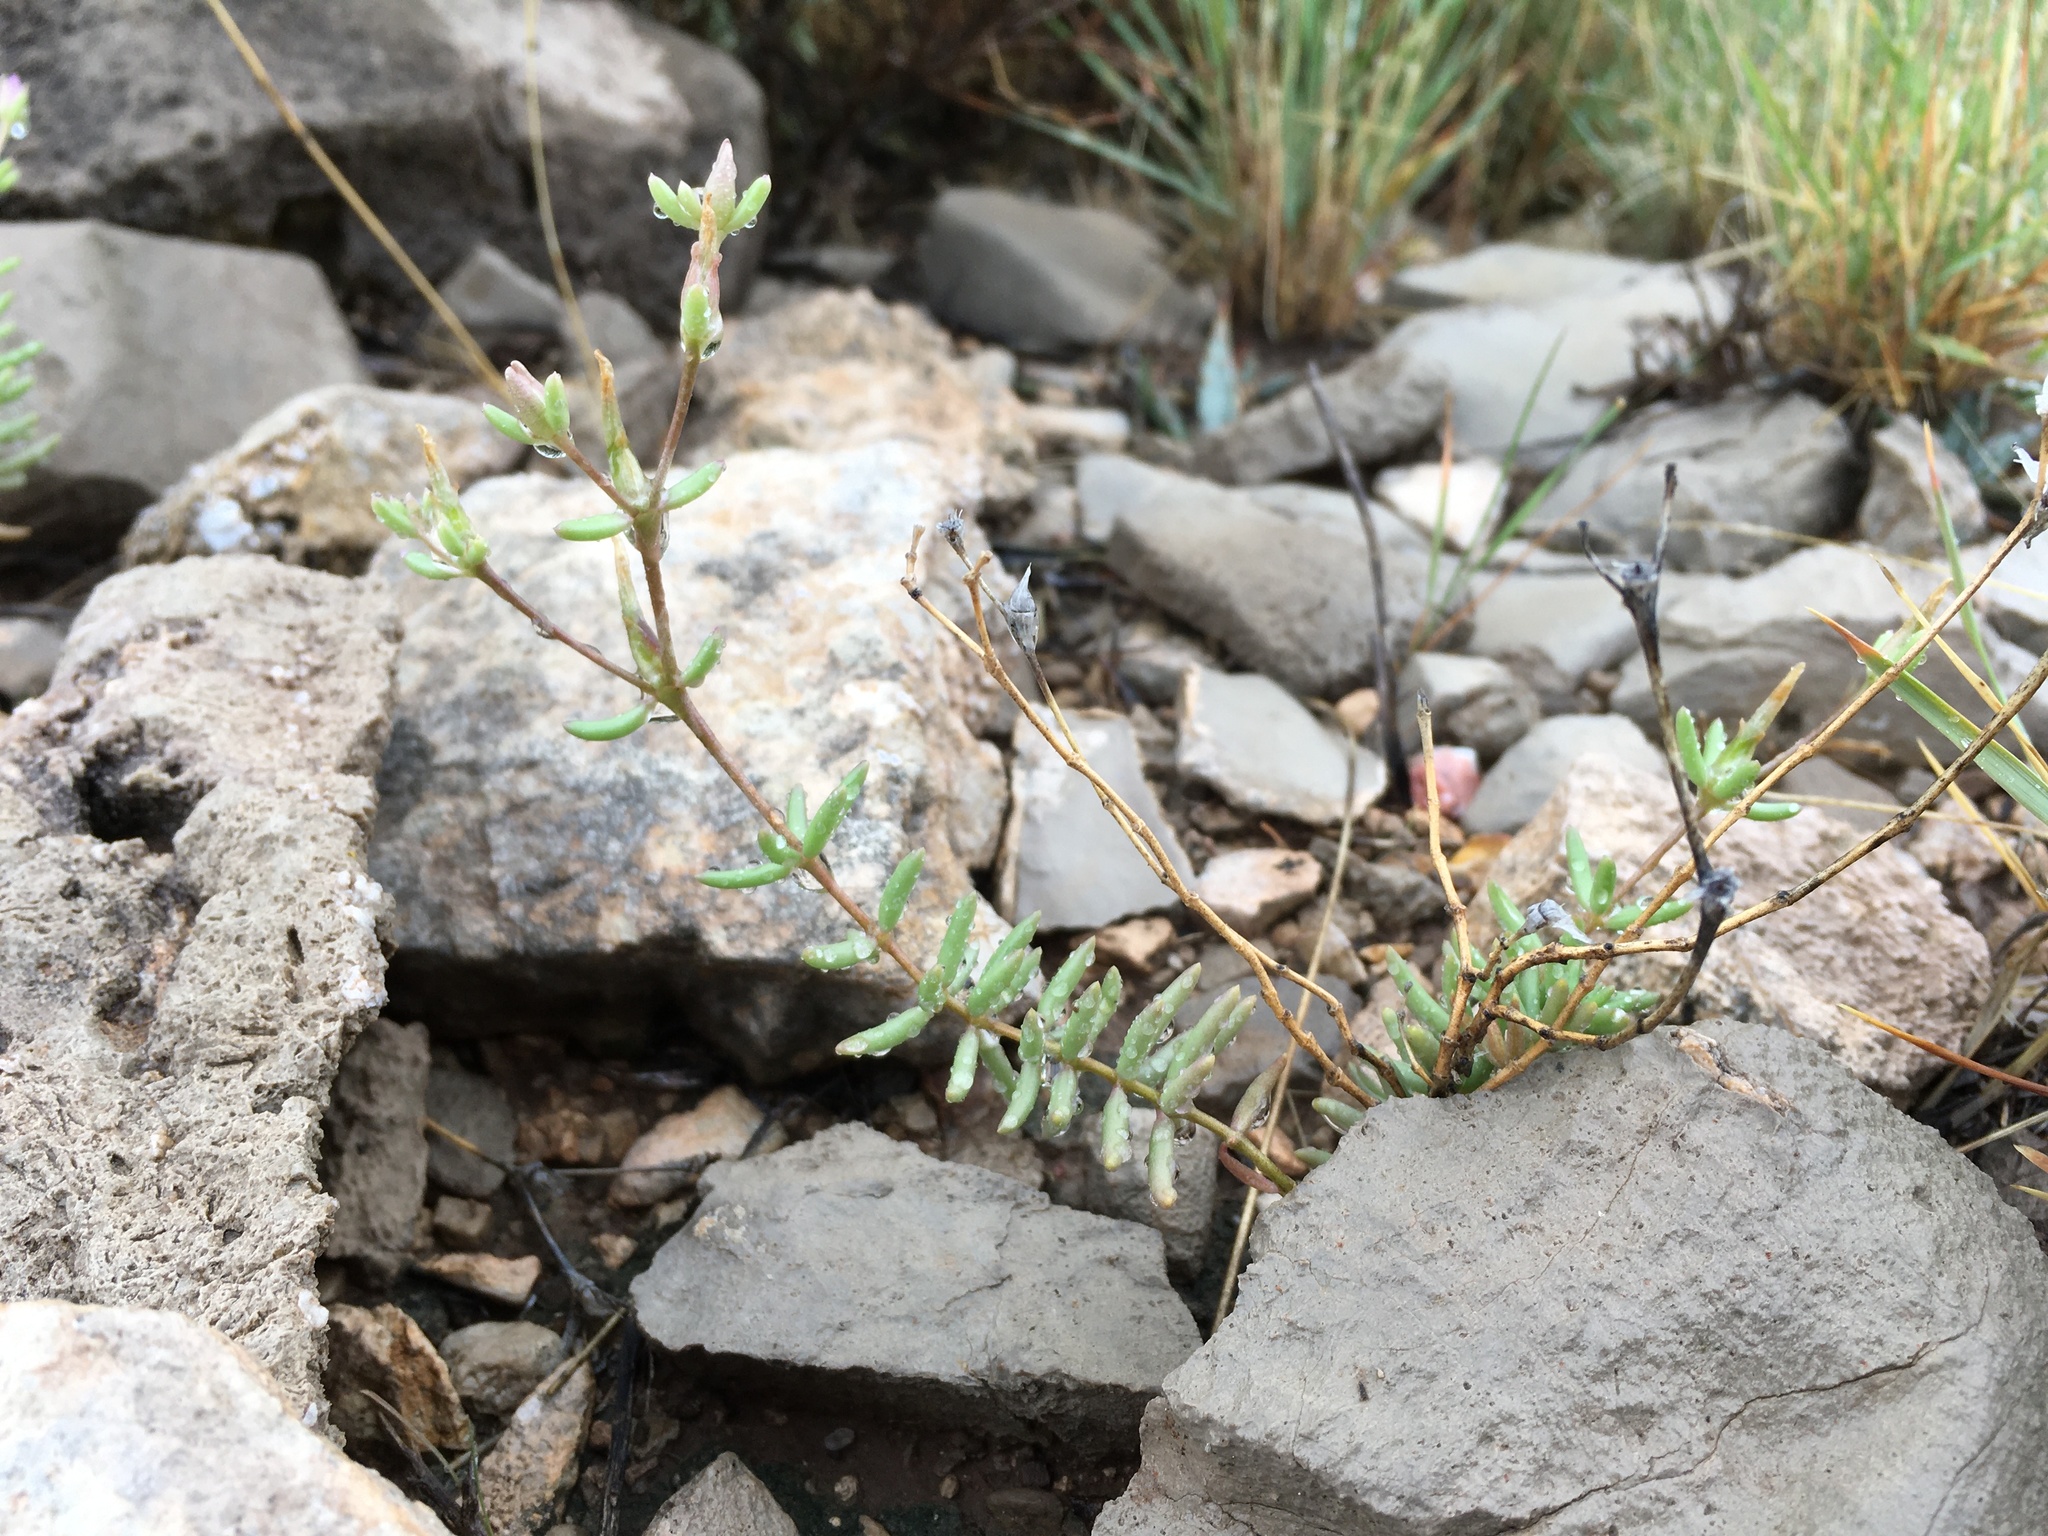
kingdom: Plantae
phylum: Tracheophyta
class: Magnoliopsida
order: Caryophyllales
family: Anacampserotaceae
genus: Grahamia
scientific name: Grahamia frutescens
